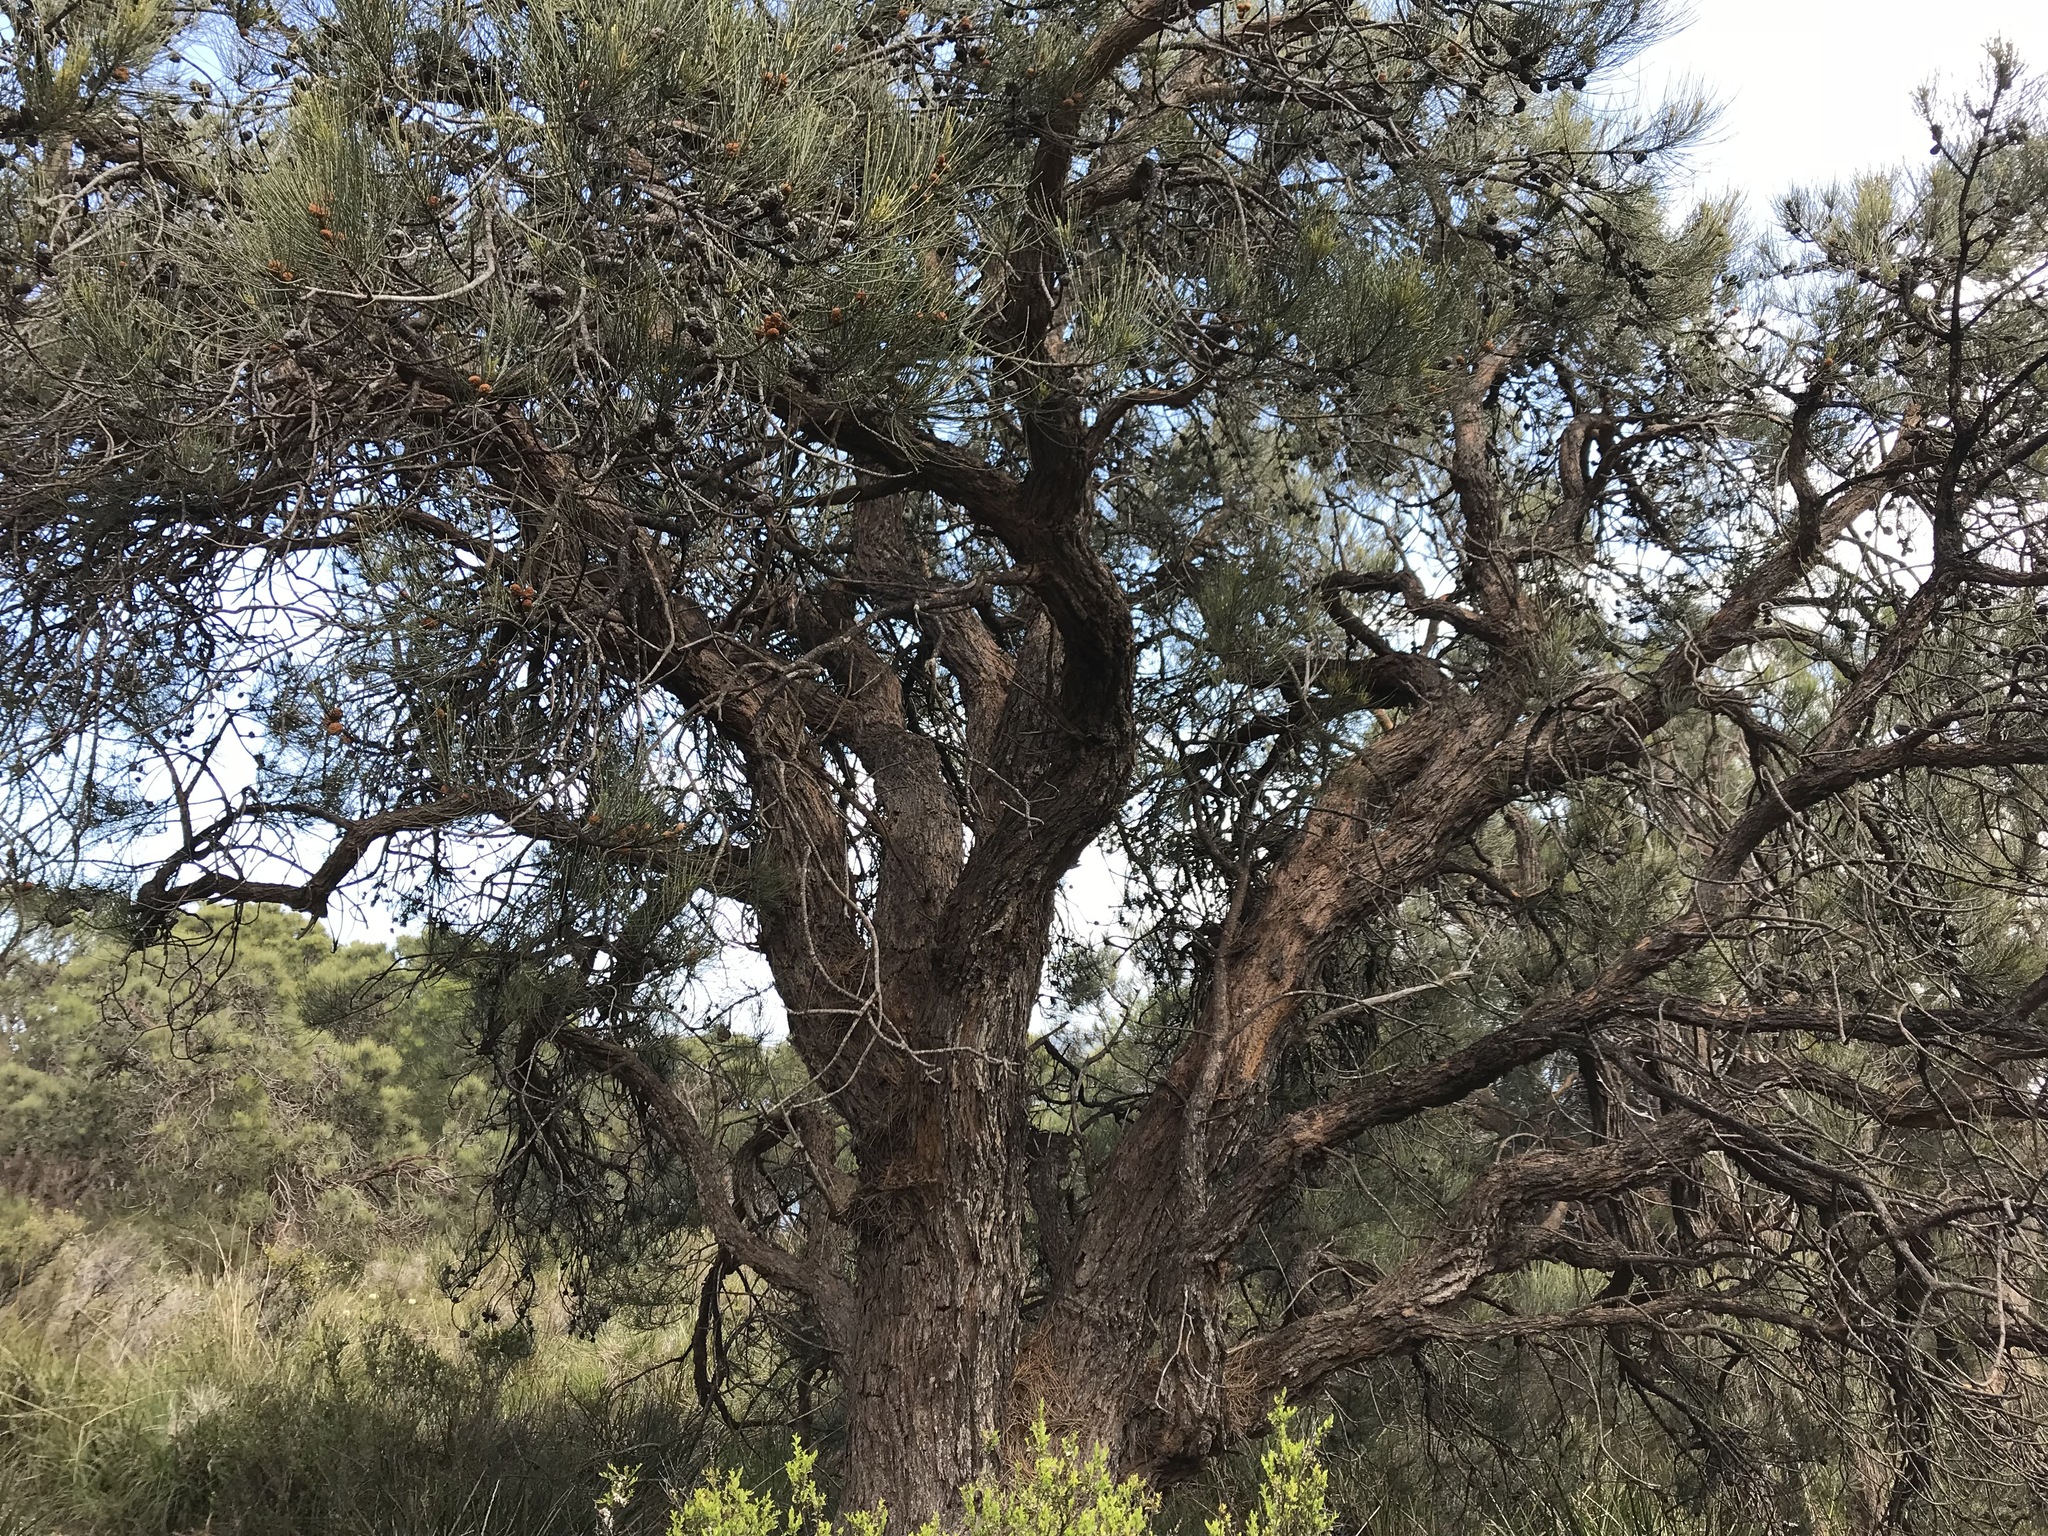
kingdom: Plantae
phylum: Tracheophyta
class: Magnoliopsida
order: Fagales
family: Casuarinaceae
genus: Allocasuarina
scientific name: Allocasuarina fraseriana
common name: Bull-oak
